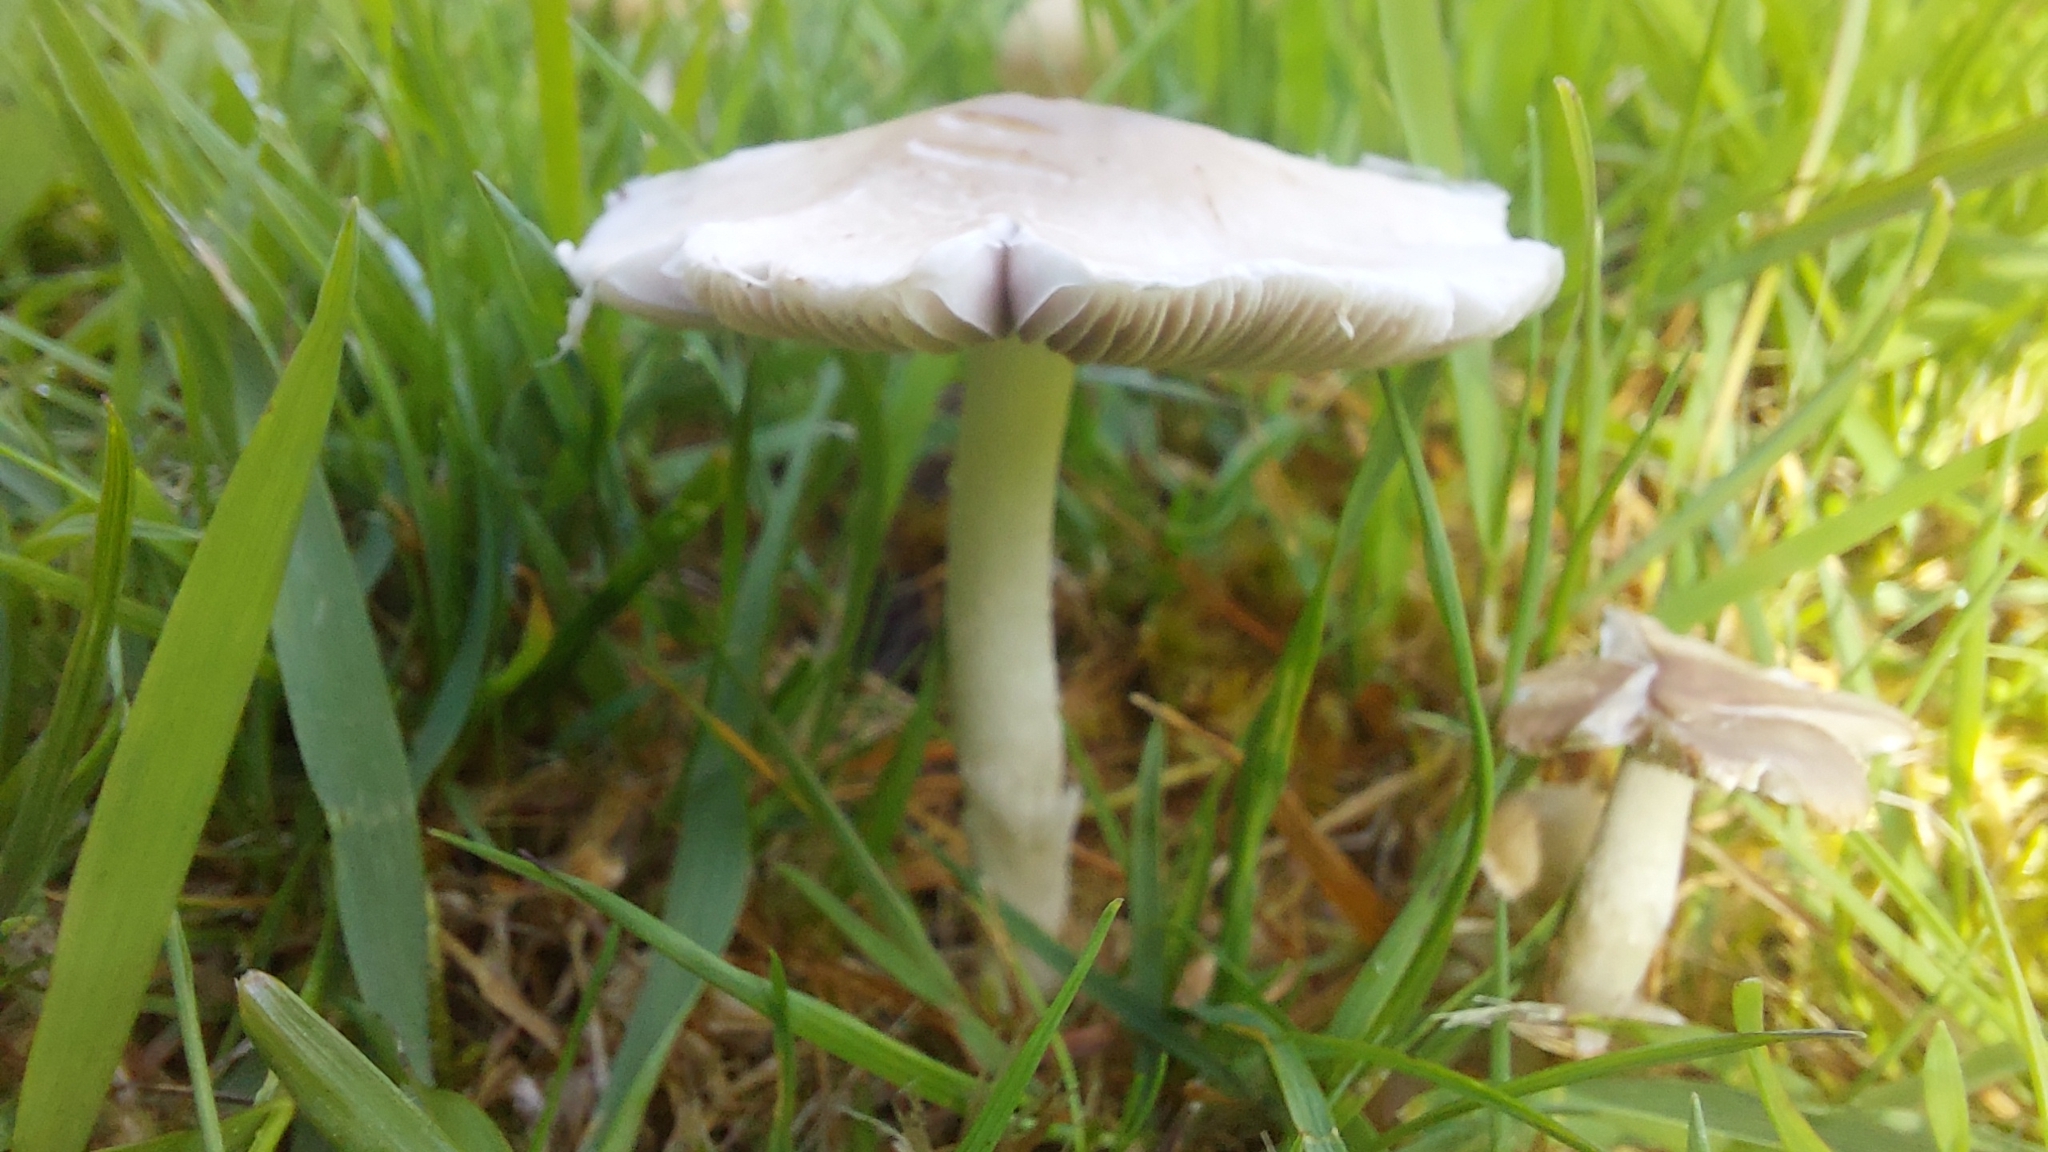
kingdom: Fungi
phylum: Basidiomycota
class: Agaricomycetes
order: Agaricales
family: Psathyrellaceae
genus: Candolleomyces
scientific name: Candolleomyces candolleanus
